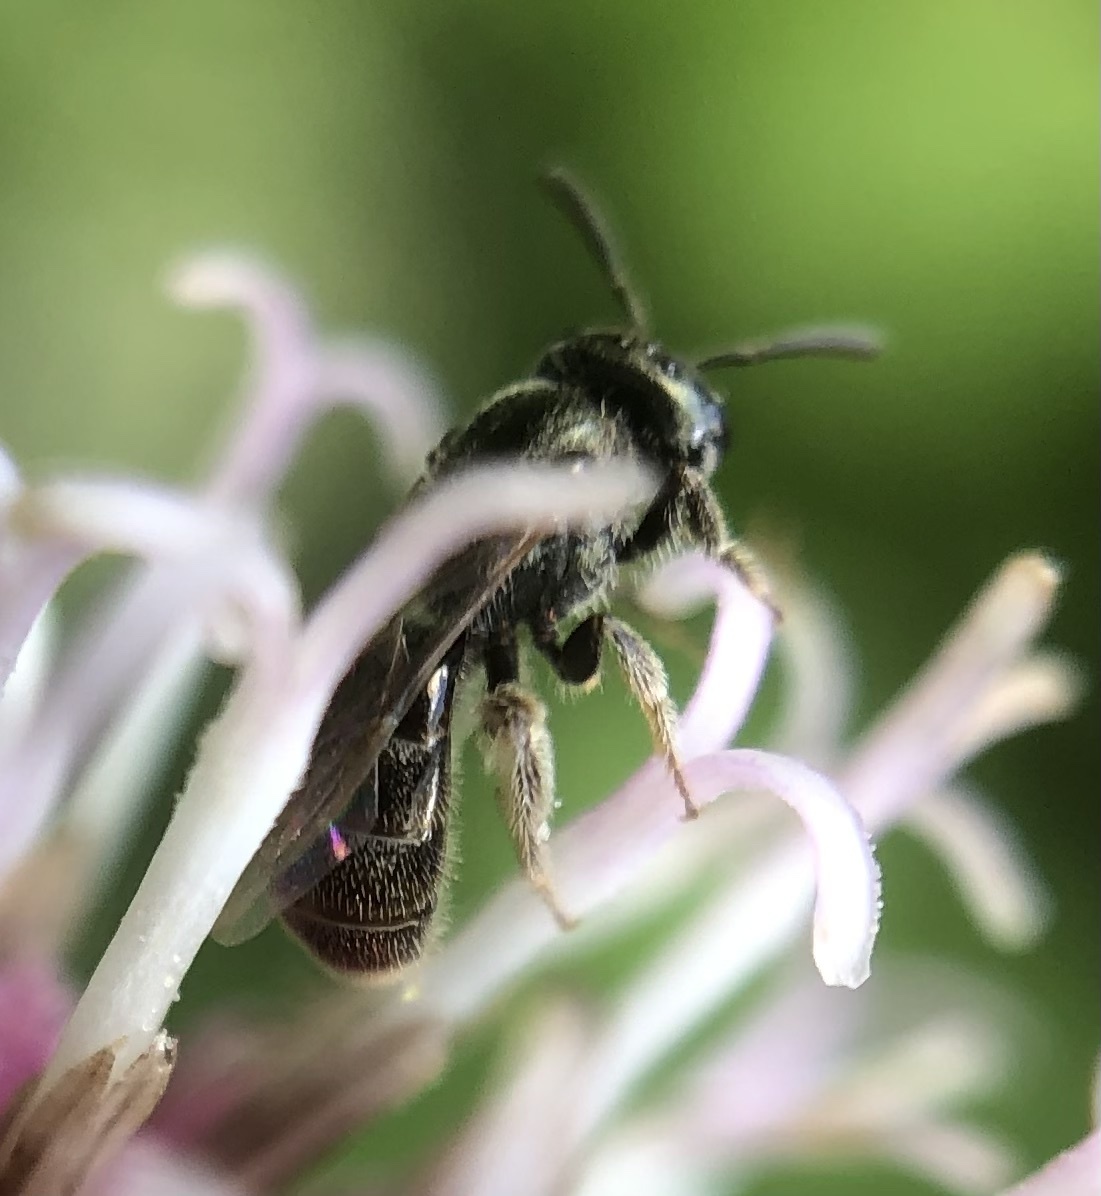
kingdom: Animalia
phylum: Arthropoda
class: Insecta
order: Hymenoptera
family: Halictidae
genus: Lasioglossum
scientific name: Lasioglossum imitatum
